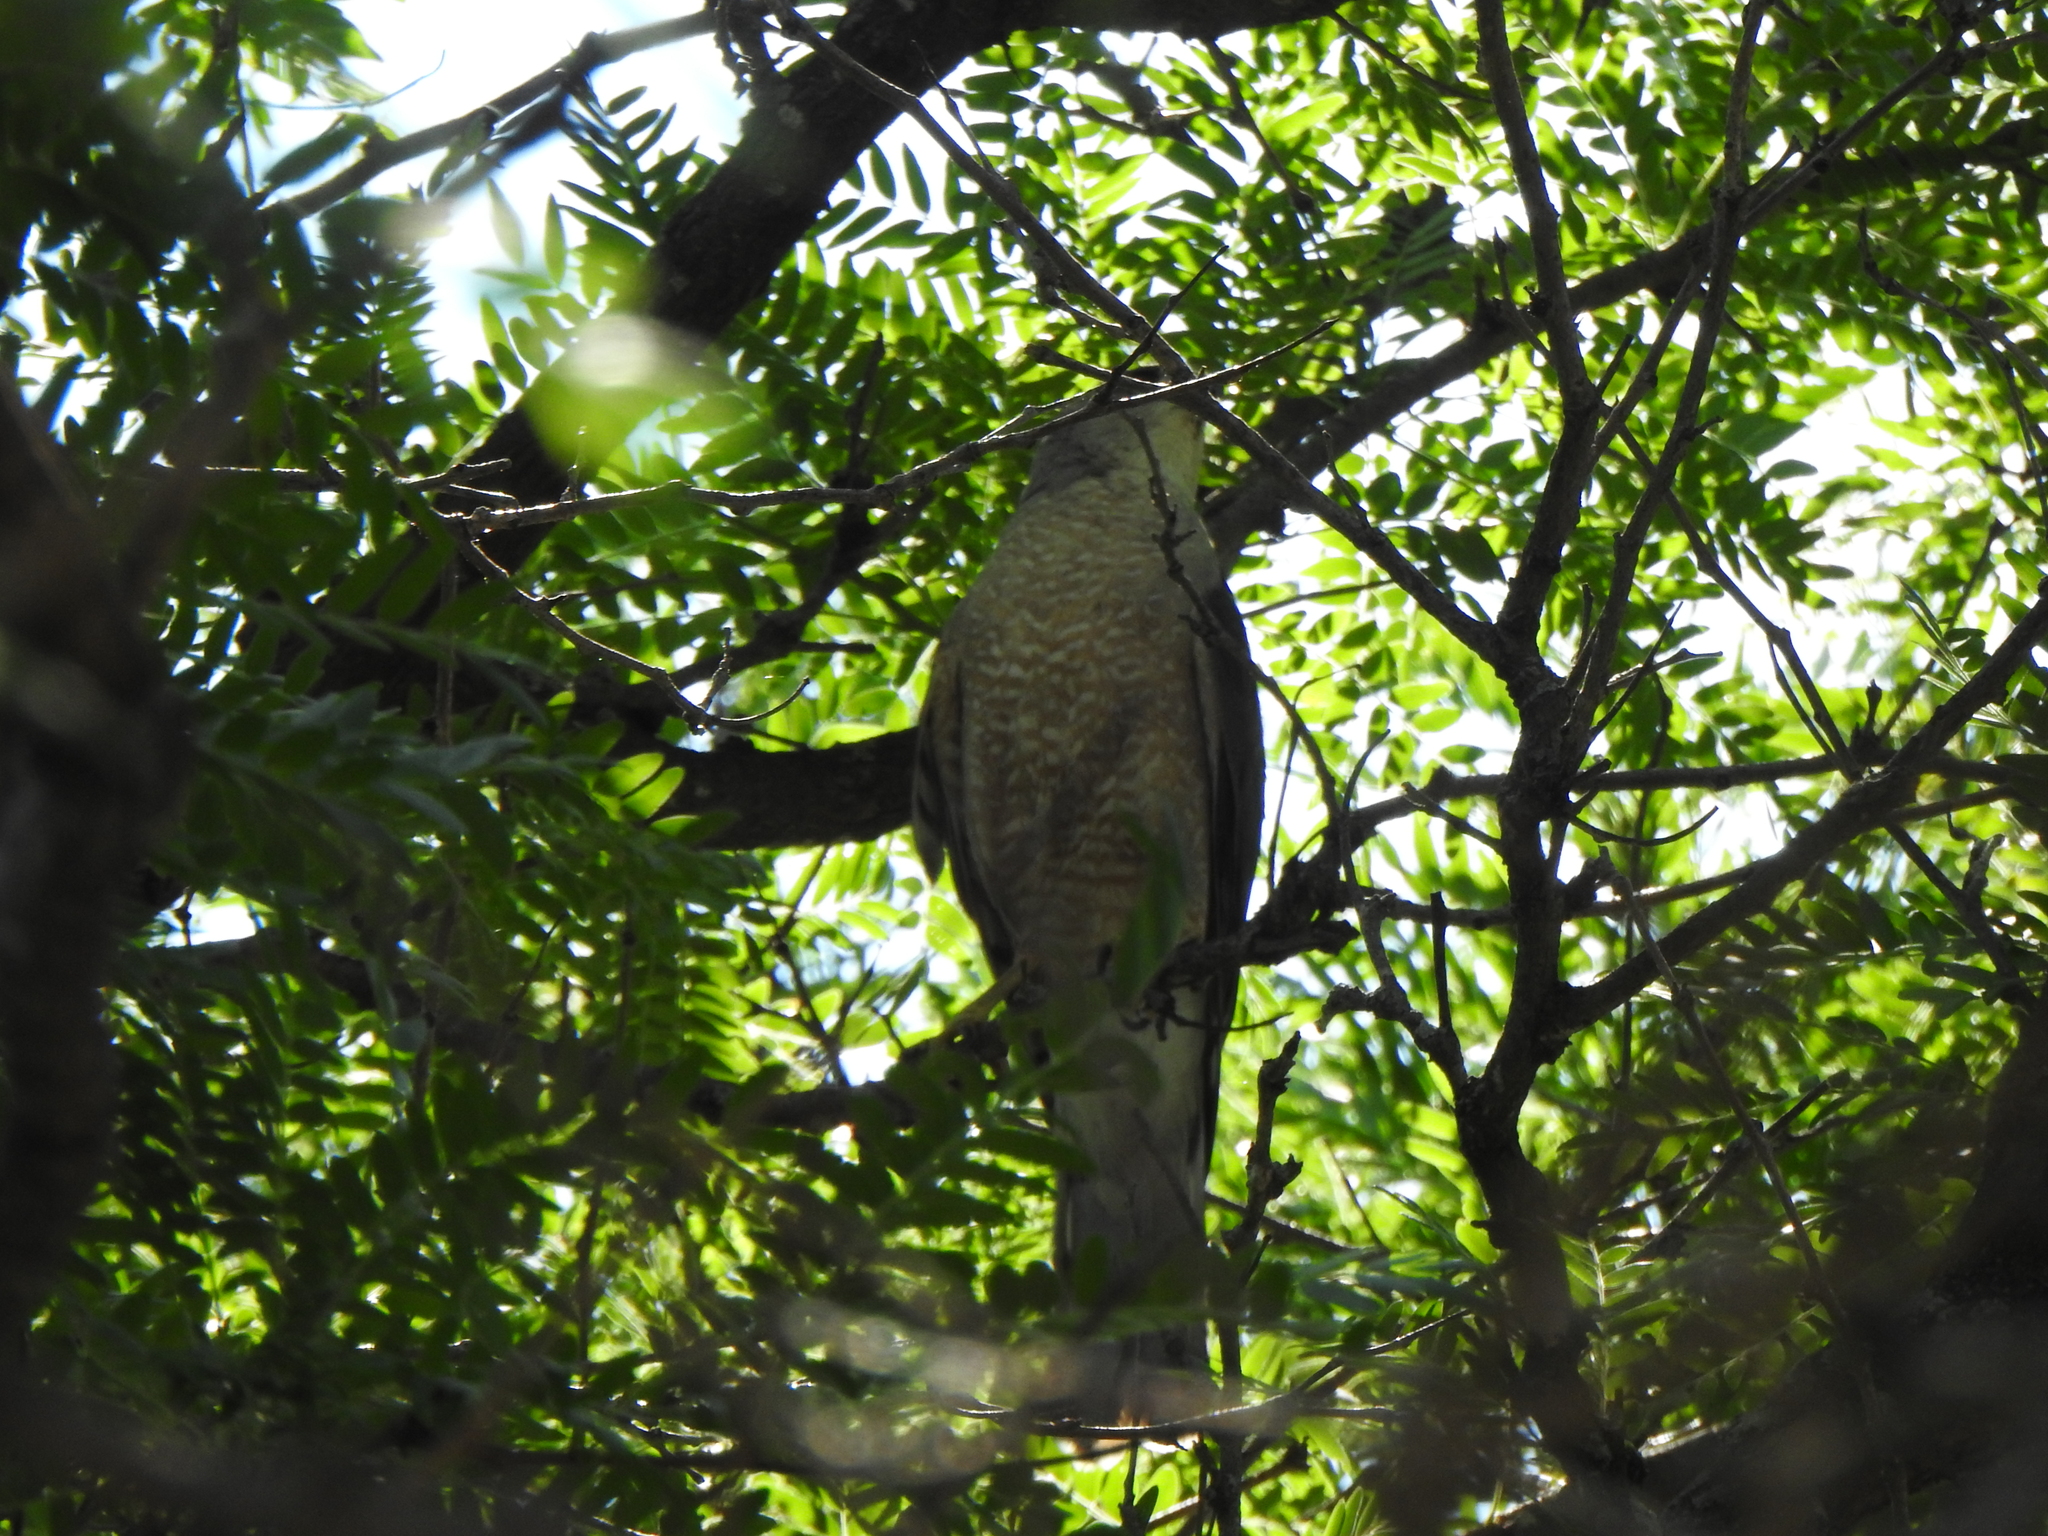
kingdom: Animalia
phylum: Chordata
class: Aves
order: Accipitriformes
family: Accipitridae
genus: Accipiter
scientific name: Accipiter cooperii
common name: Cooper's hawk
